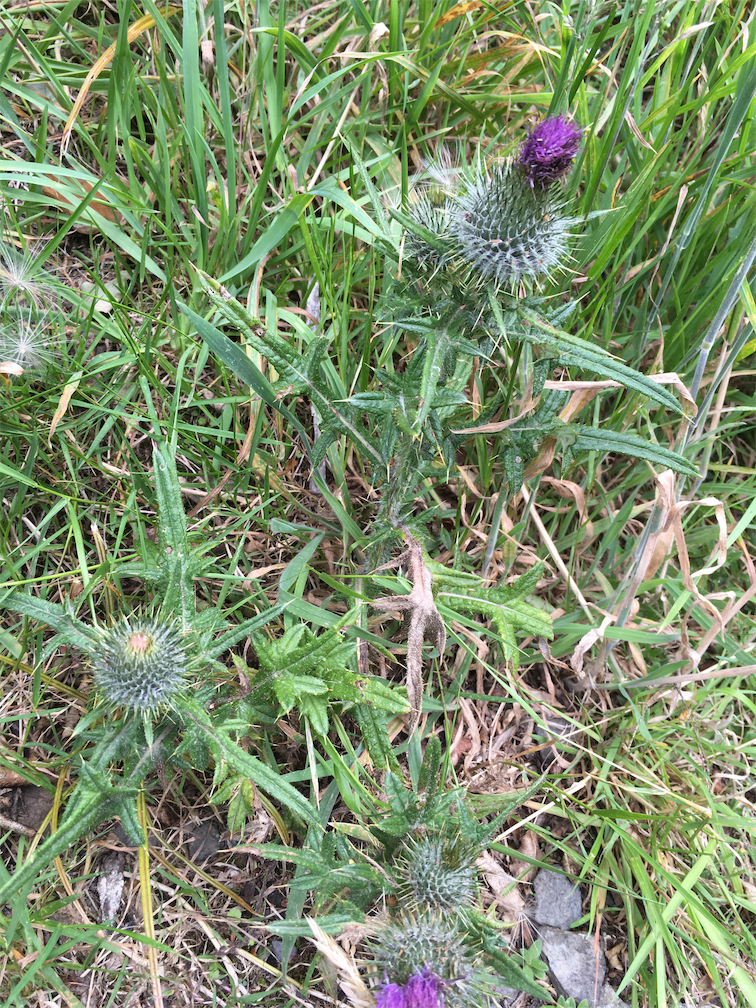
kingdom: Plantae
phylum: Tracheophyta
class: Magnoliopsida
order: Asterales
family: Asteraceae
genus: Cirsium
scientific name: Cirsium vulgare
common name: Bull thistle
